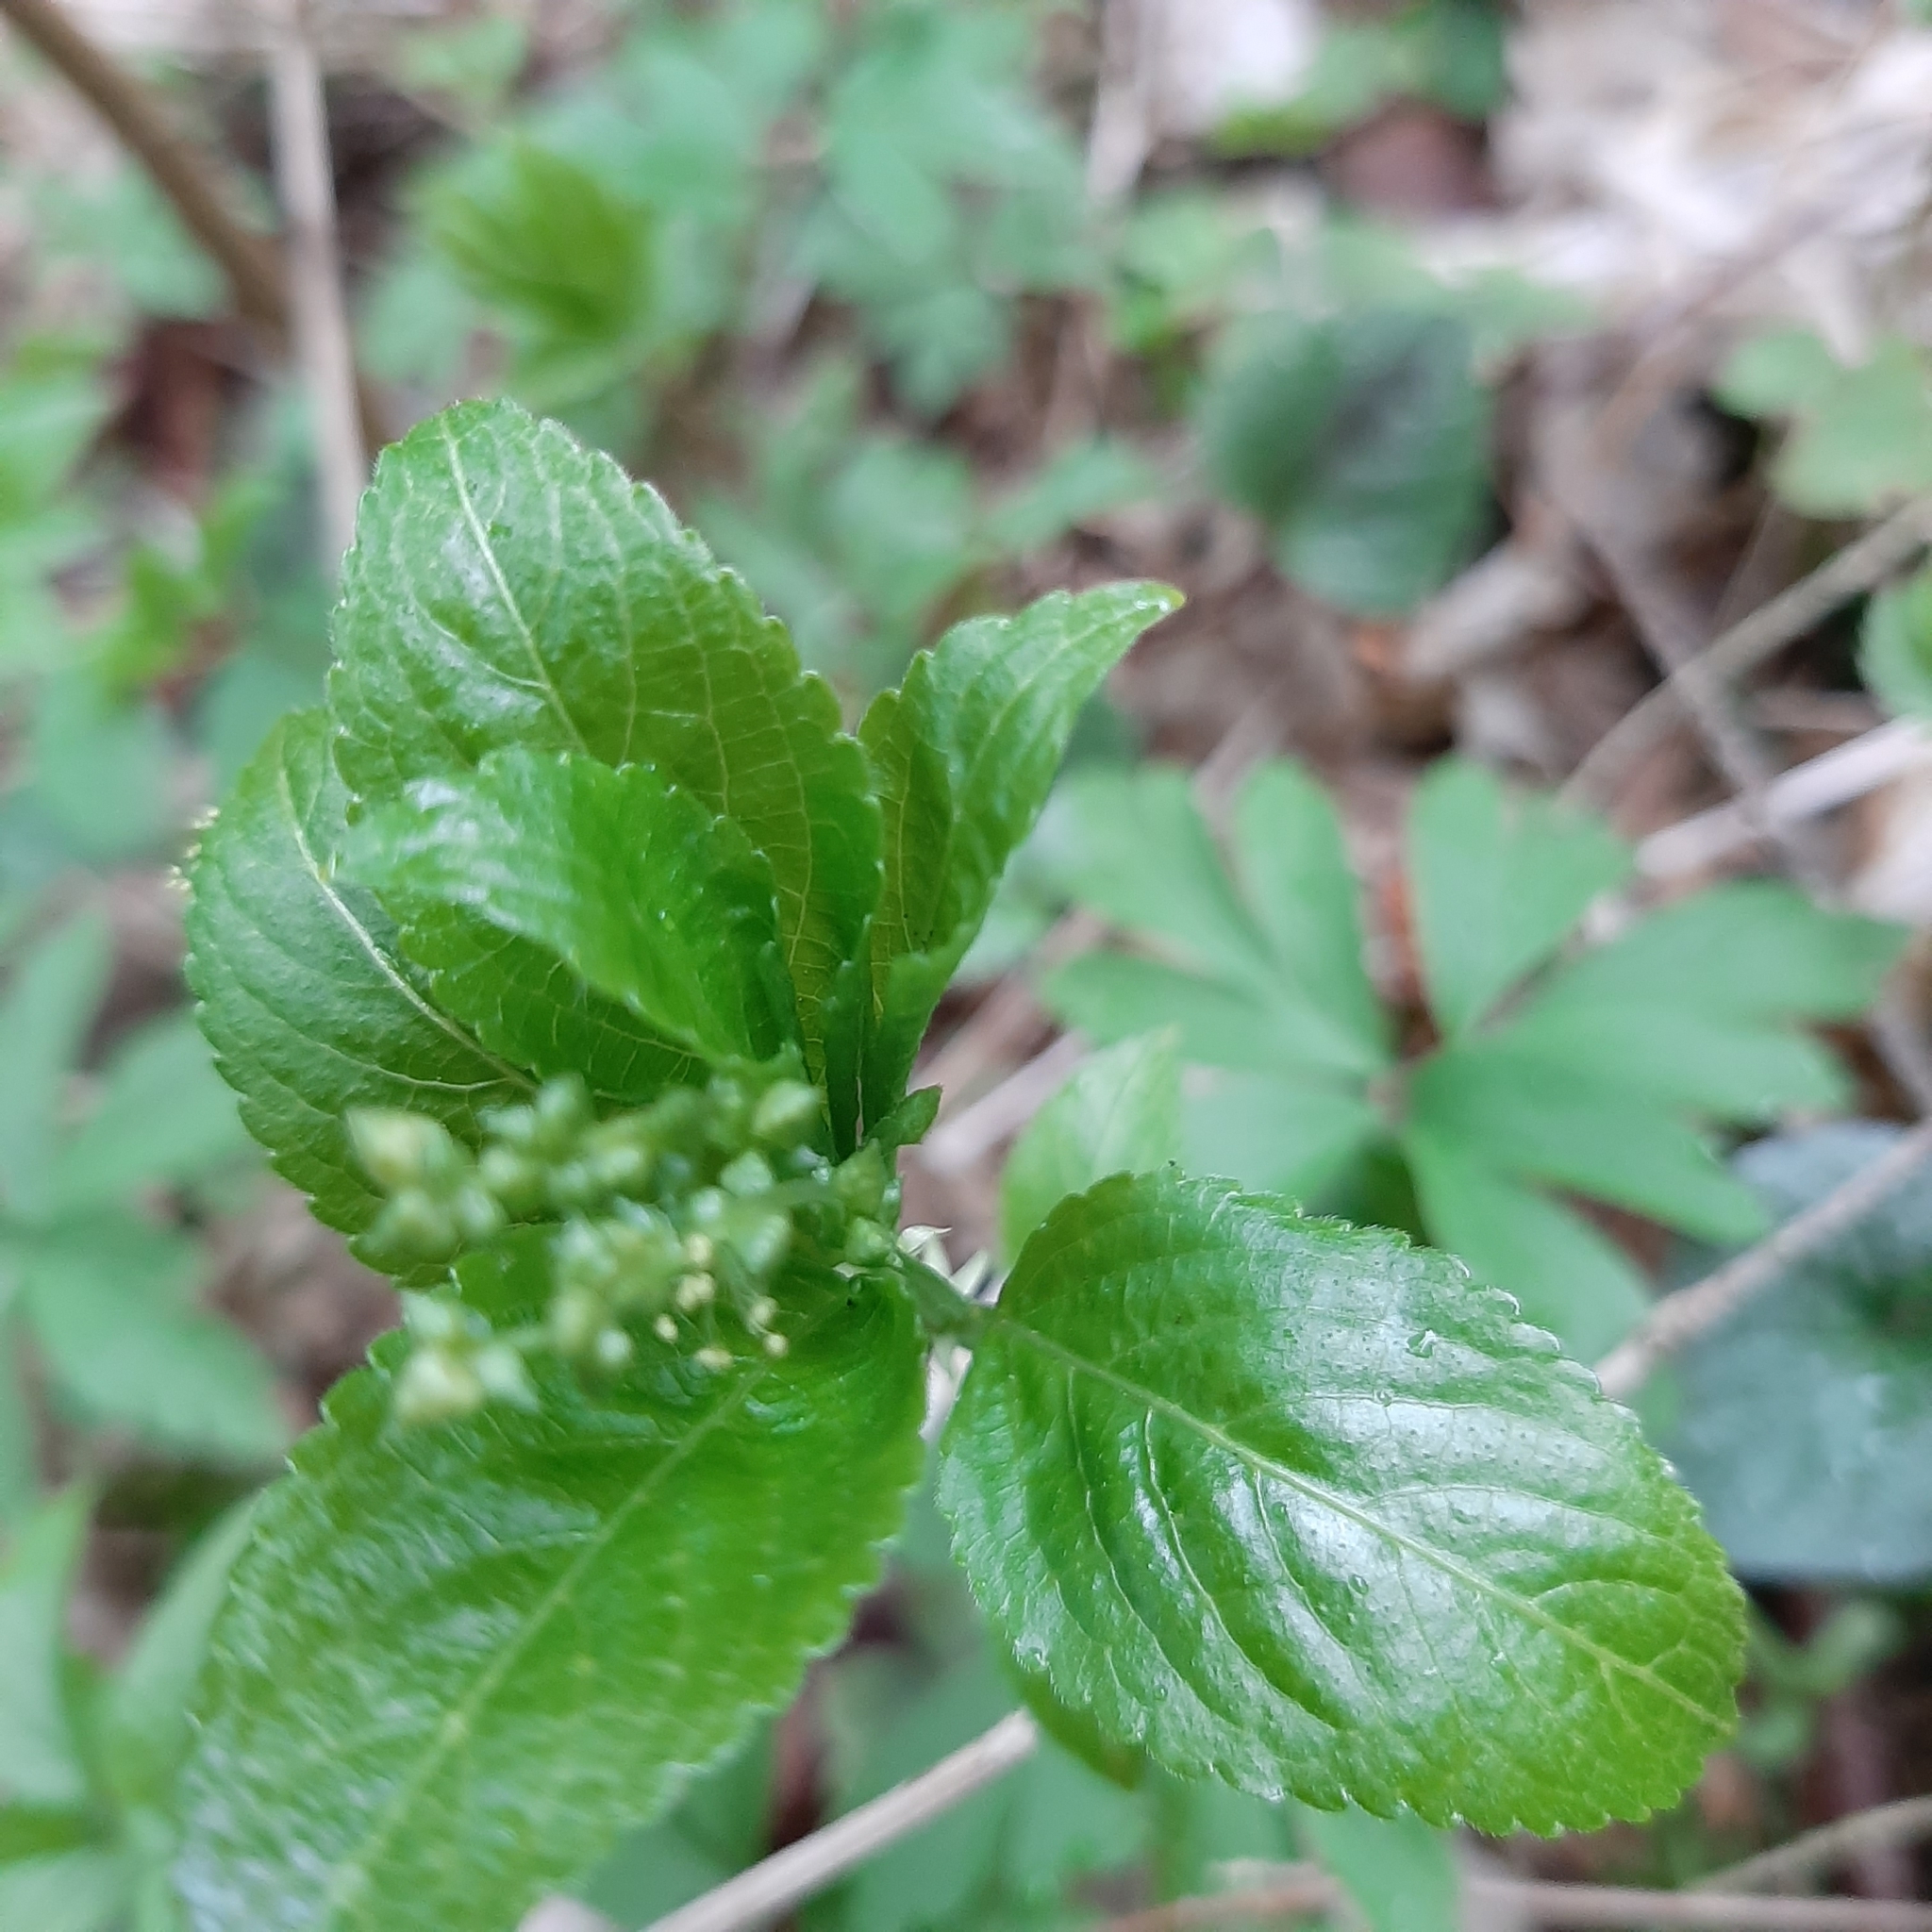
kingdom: Plantae
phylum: Tracheophyta
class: Magnoliopsida
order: Malpighiales
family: Euphorbiaceae
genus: Mercurialis
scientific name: Mercurialis perennis
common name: Dog mercury
